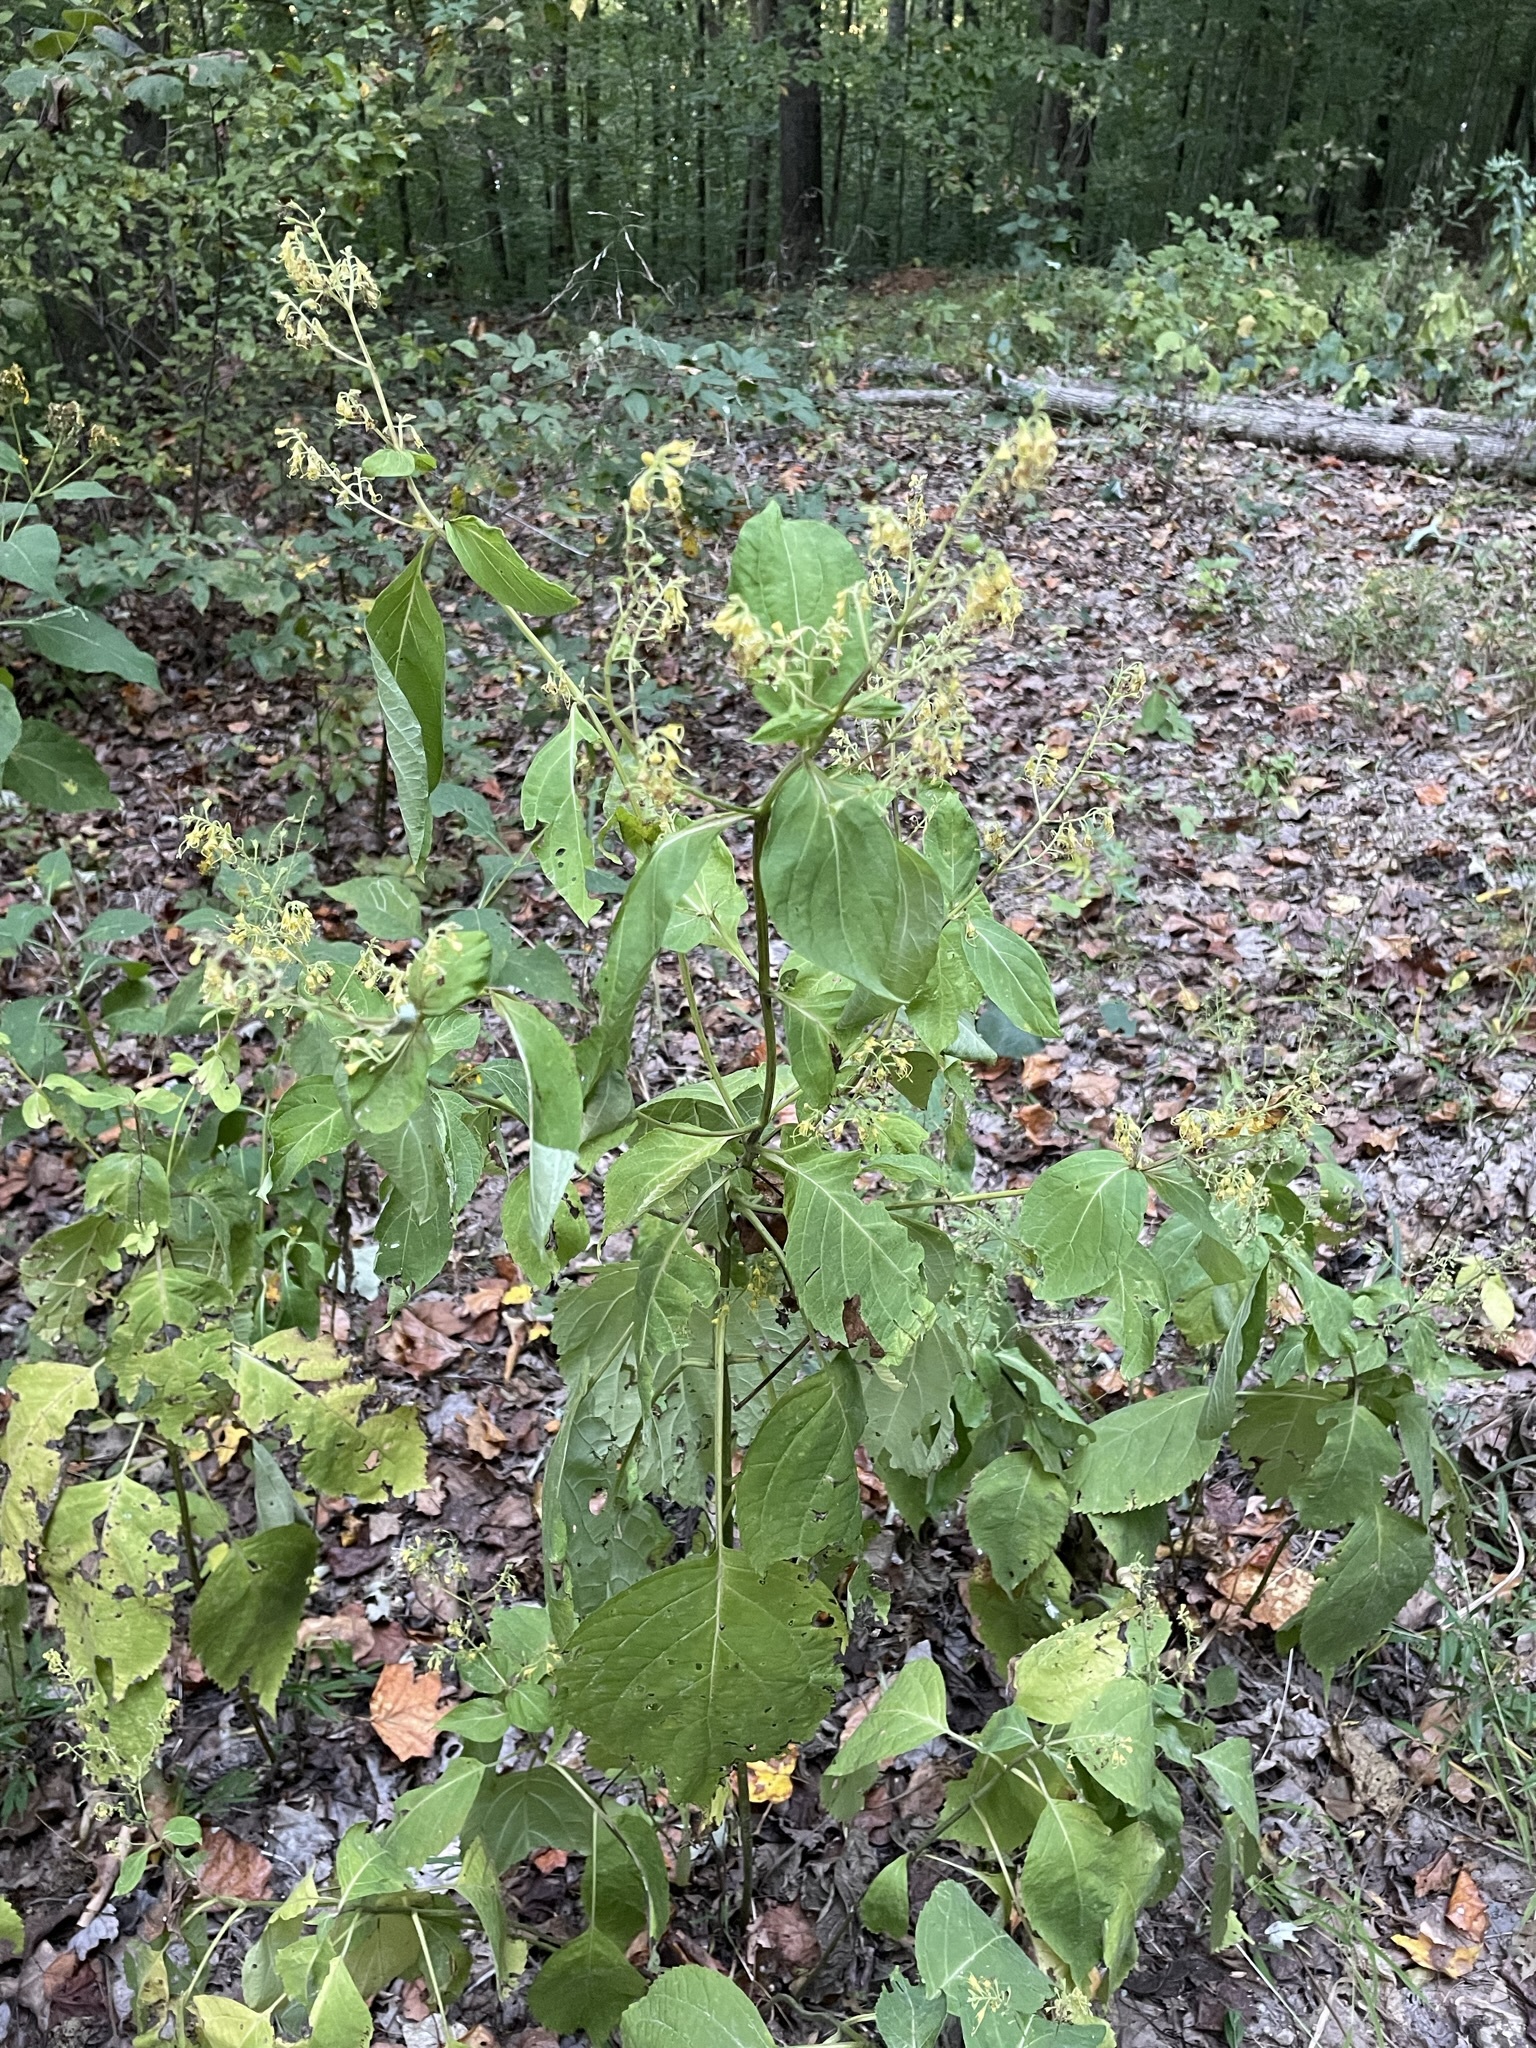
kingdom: Plantae
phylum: Tracheophyta
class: Magnoliopsida
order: Lamiales
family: Lamiaceae
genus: Collinsonia
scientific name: Collinsonia canadensis
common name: Northern horsebalm
